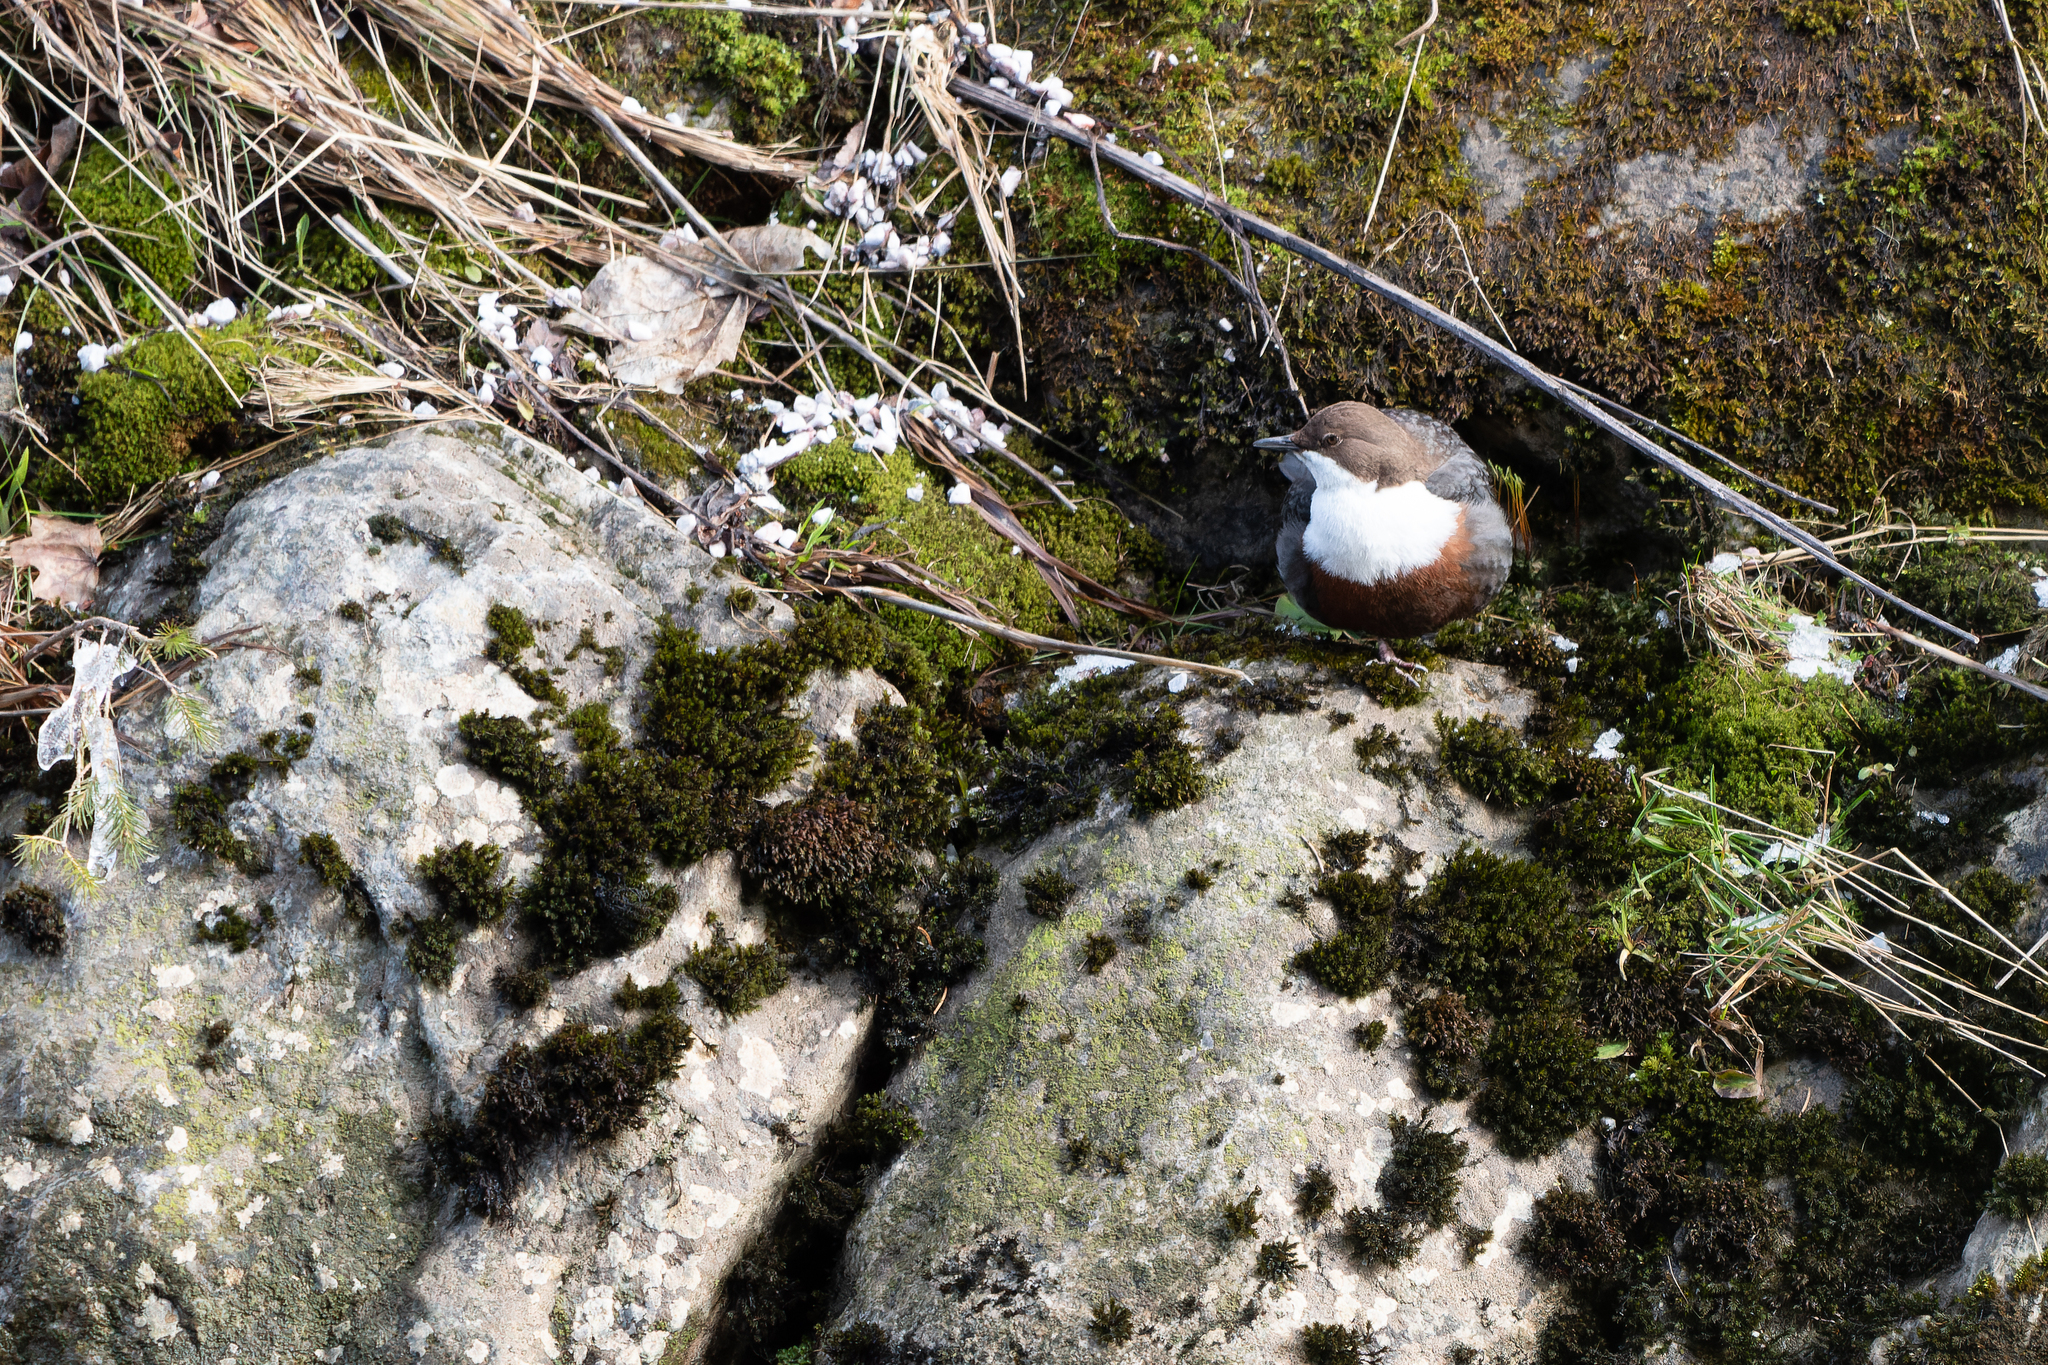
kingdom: Animalia
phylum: Chordata
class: Aves
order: Passeriformes
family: Cinclidae
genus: Cinclus
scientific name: Cinclus cinclus
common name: White-throated dipper
